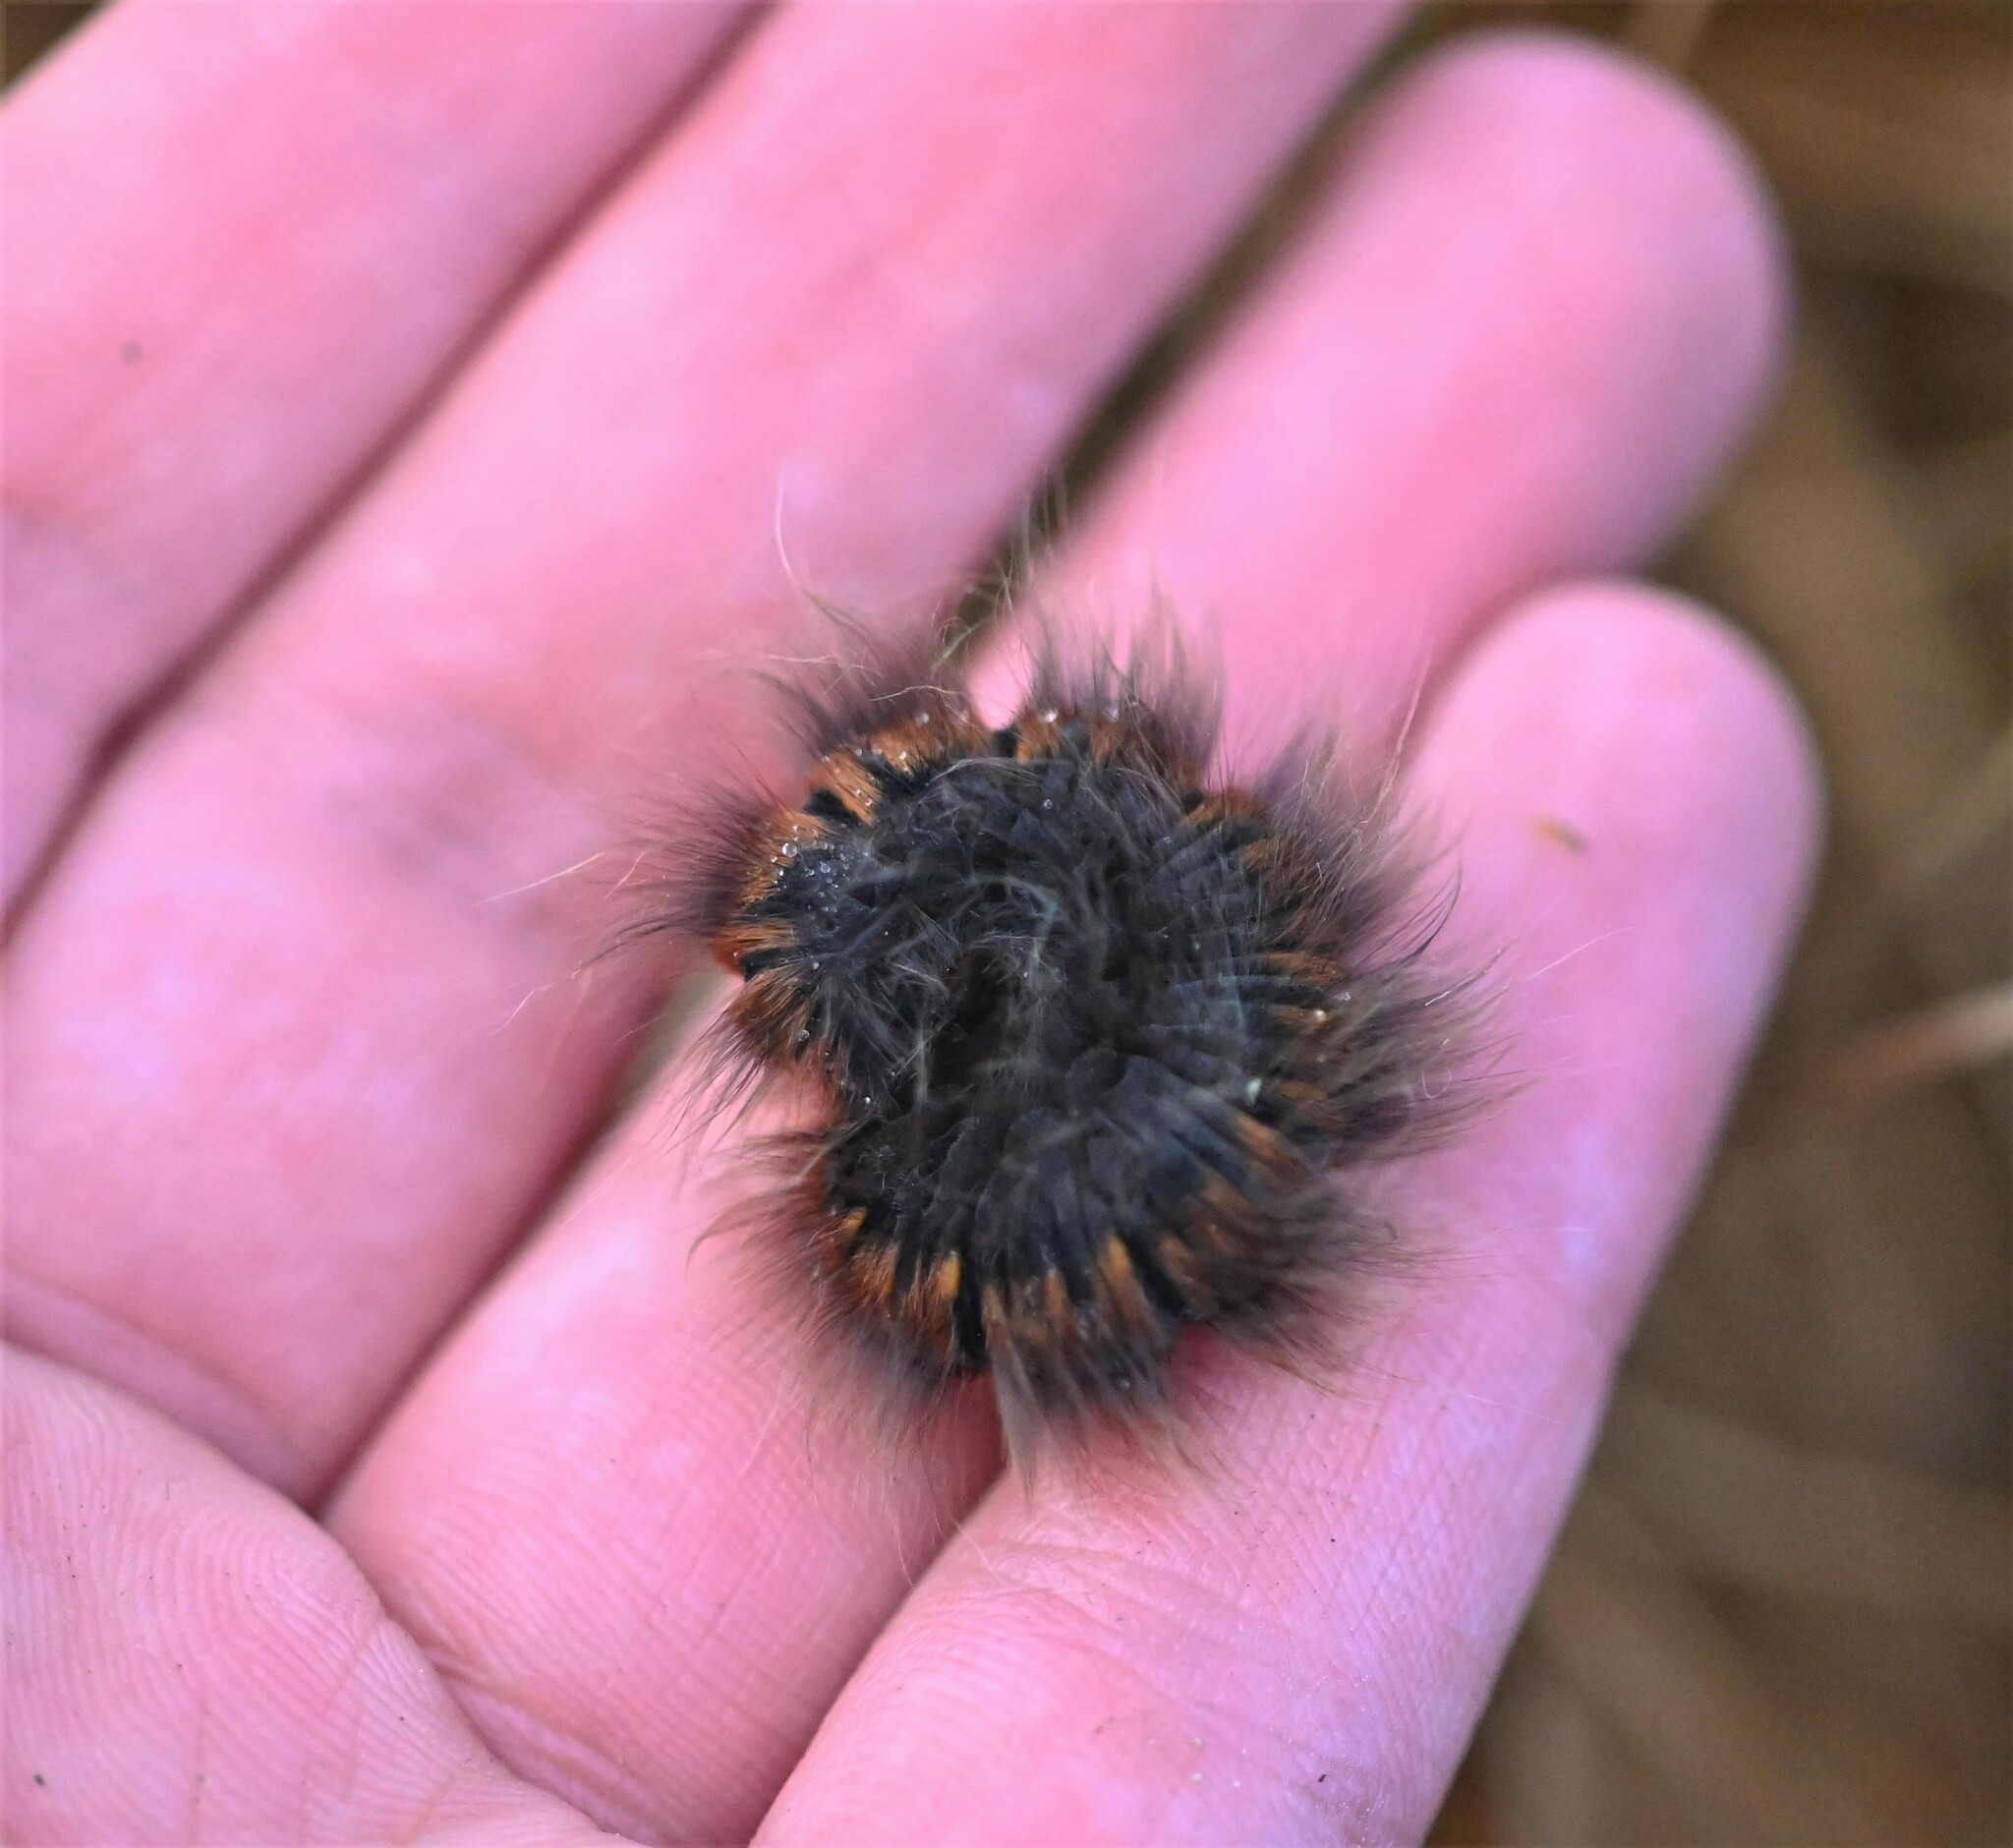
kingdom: Animalia
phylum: Arthropoda
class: Insecta
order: Lepidoptera
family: Lasiocampidae
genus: Macrothylacia
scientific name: Macrothylacia rubi
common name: Fox moth
